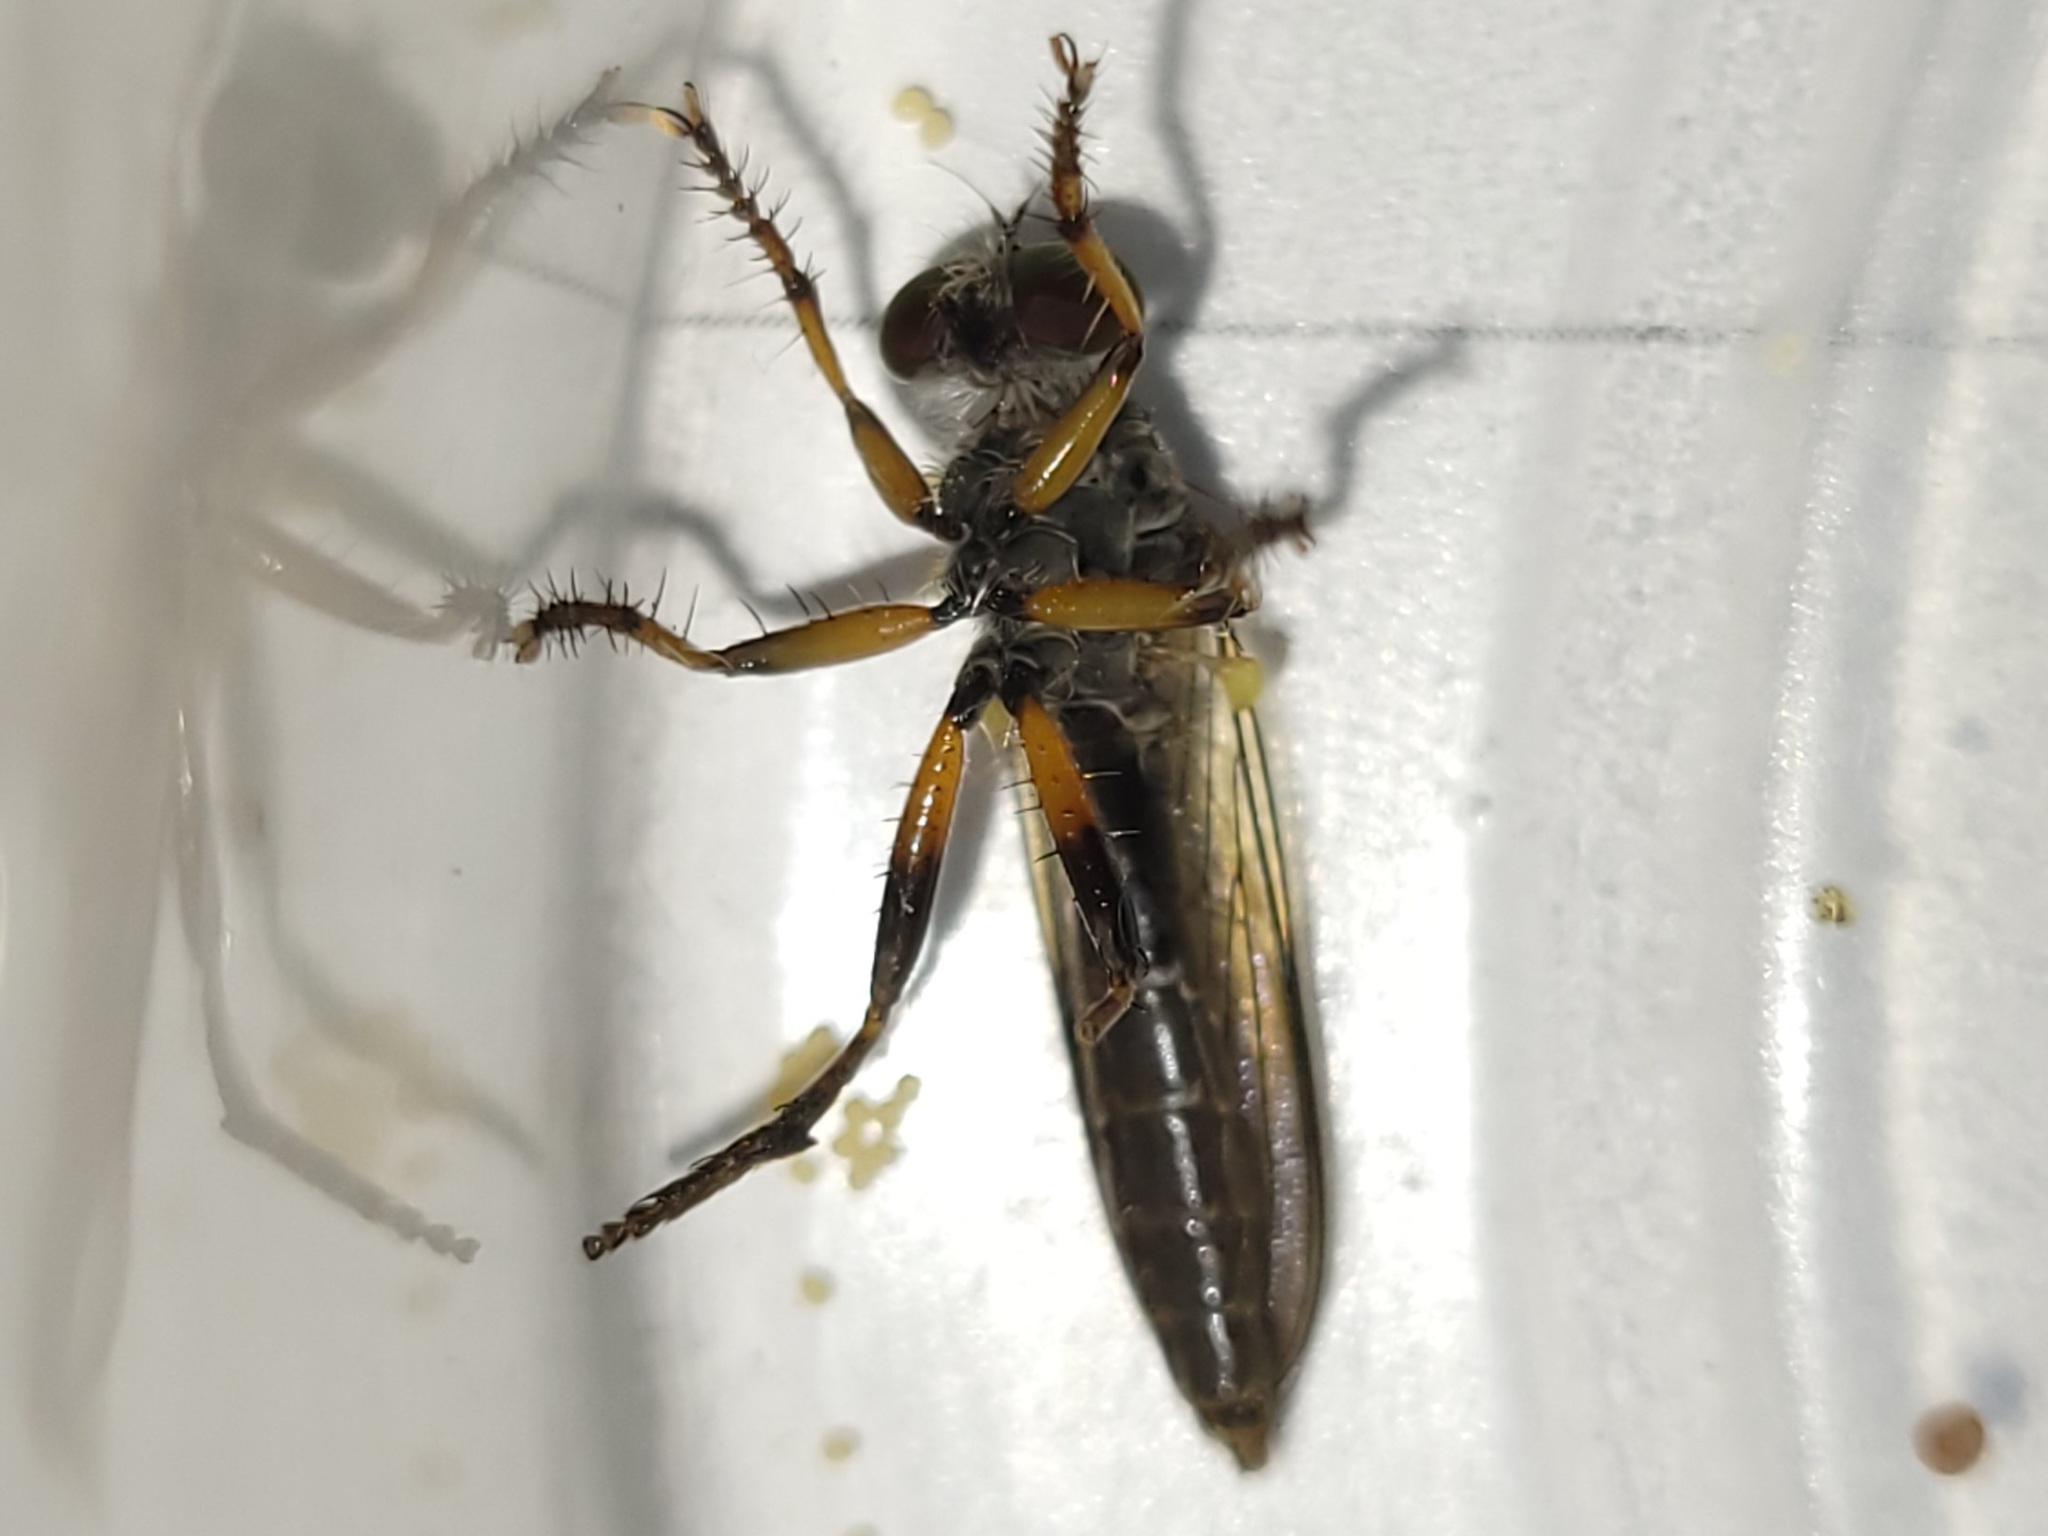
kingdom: Animalia
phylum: Arthropoda
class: Insecta
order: Diptera
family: Asilidae
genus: Ommatius
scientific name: Ommatius floridensis
